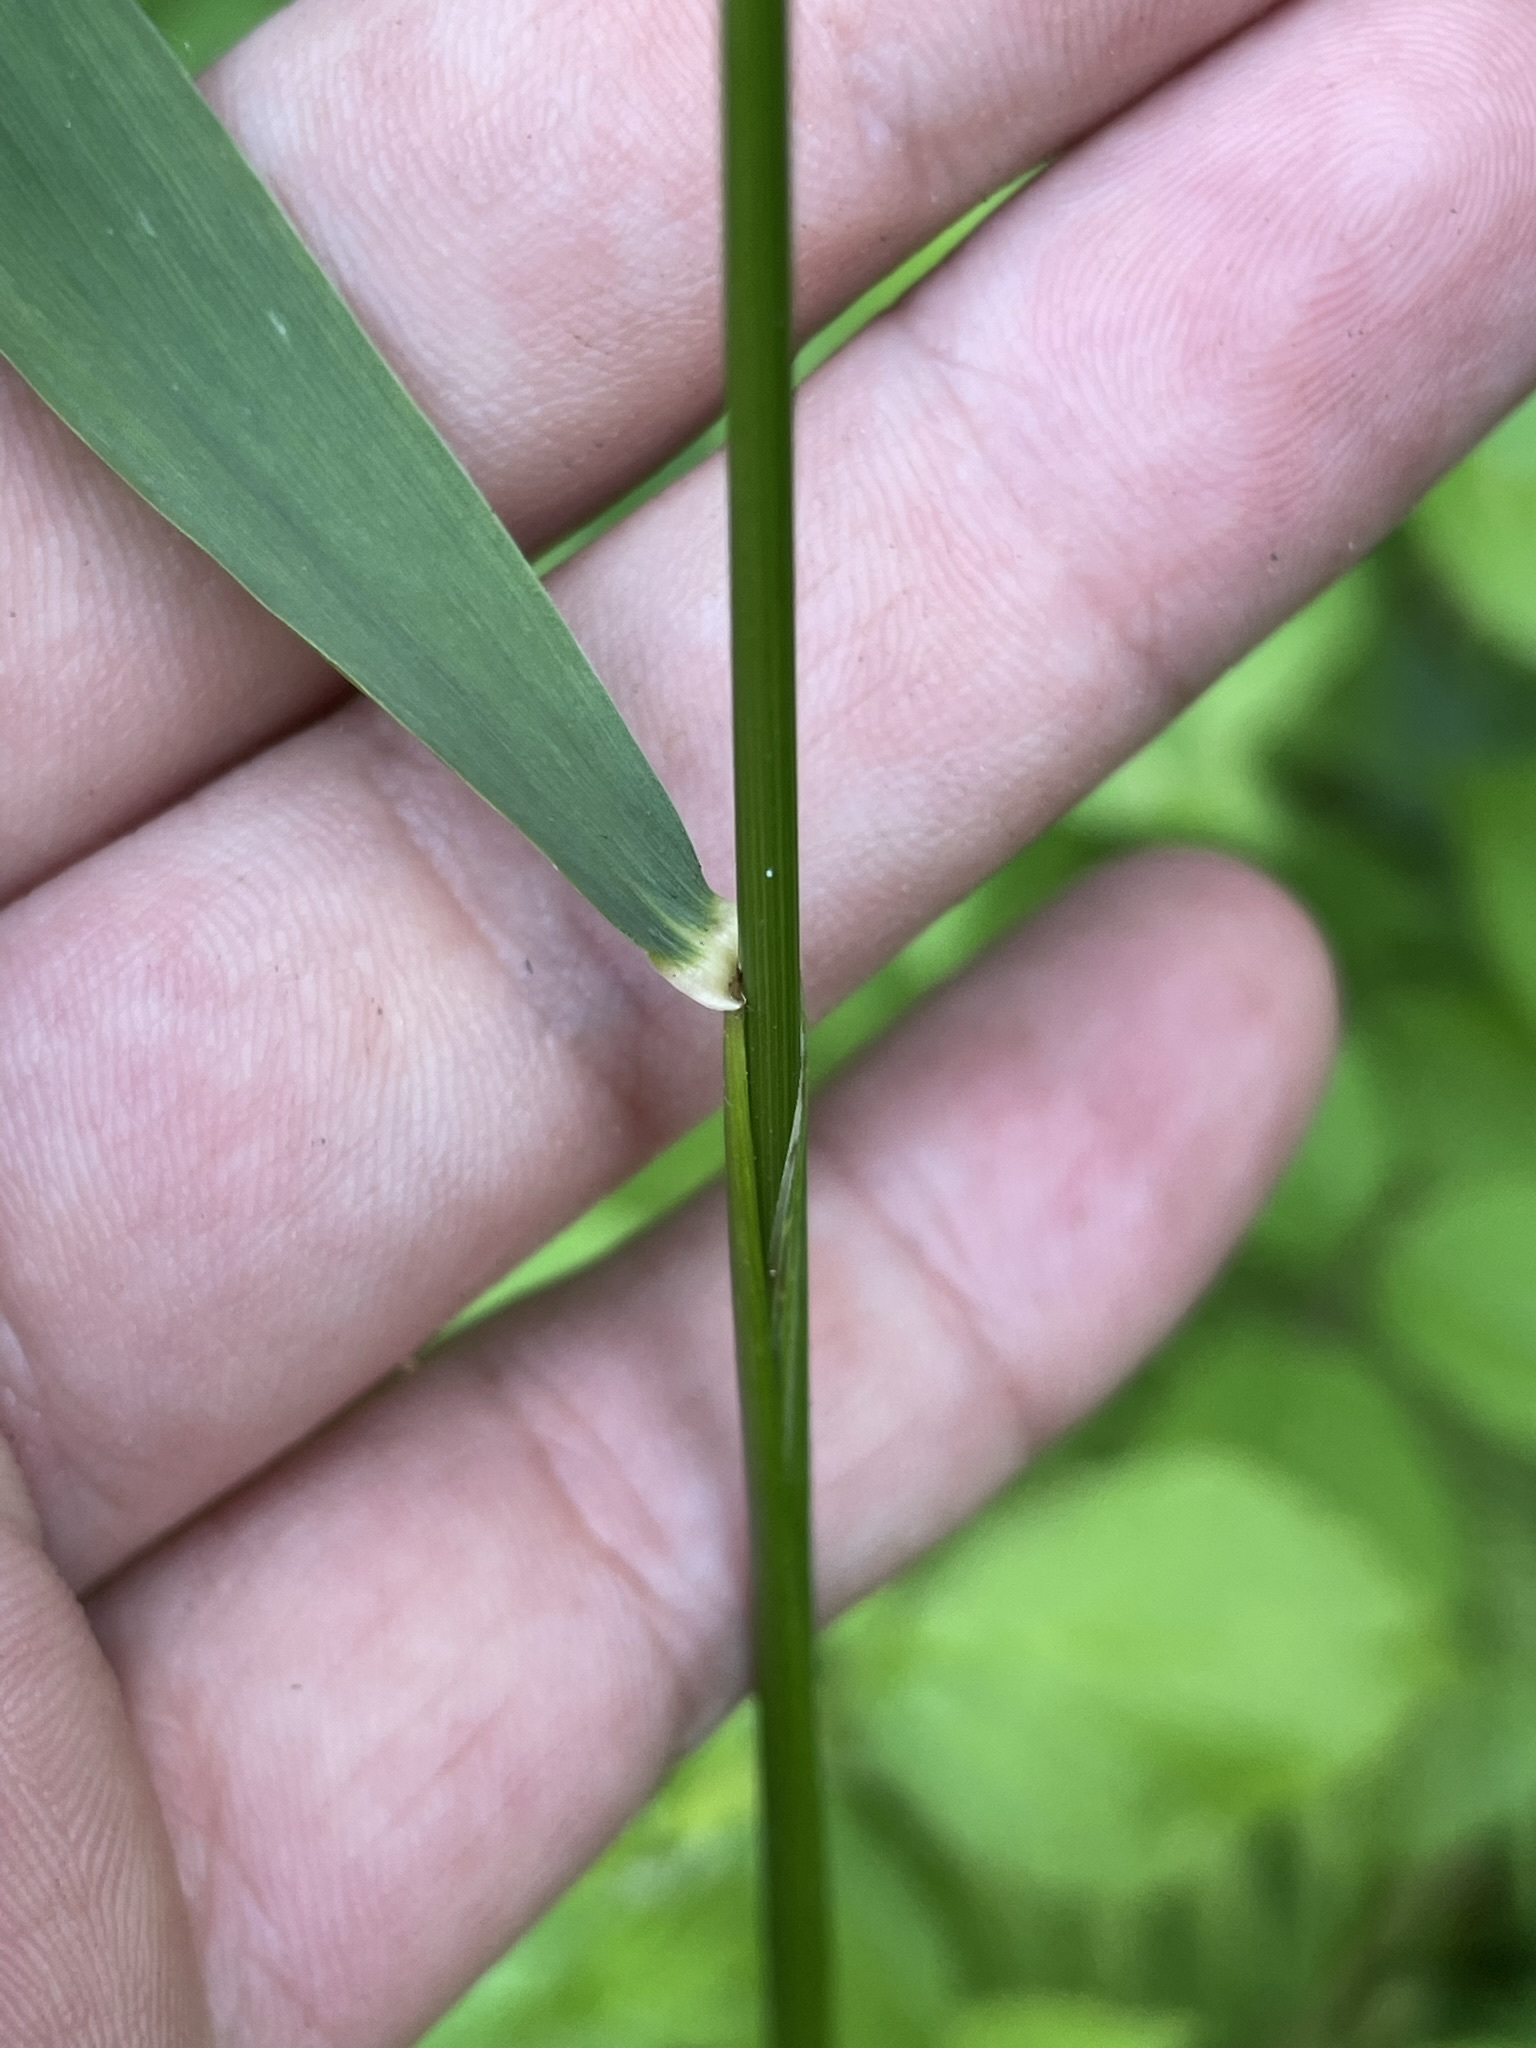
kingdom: Plantae
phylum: Tracheophyta
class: Liliopsida
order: Poales
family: Poaceae
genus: Hordelymus
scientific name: Hordelymus europaeus
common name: Wood-barley
